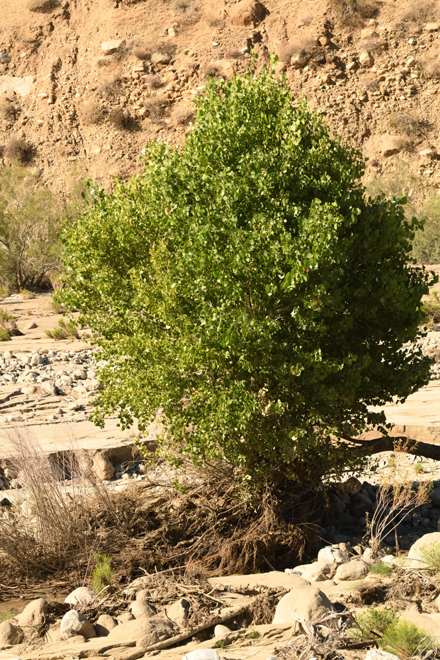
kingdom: Plantae
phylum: Tracheophyta
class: Magnoliopsida
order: Malpighiales
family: Salicaceae
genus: Populus
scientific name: Populus fremontii
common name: Fremont's cottonwood
